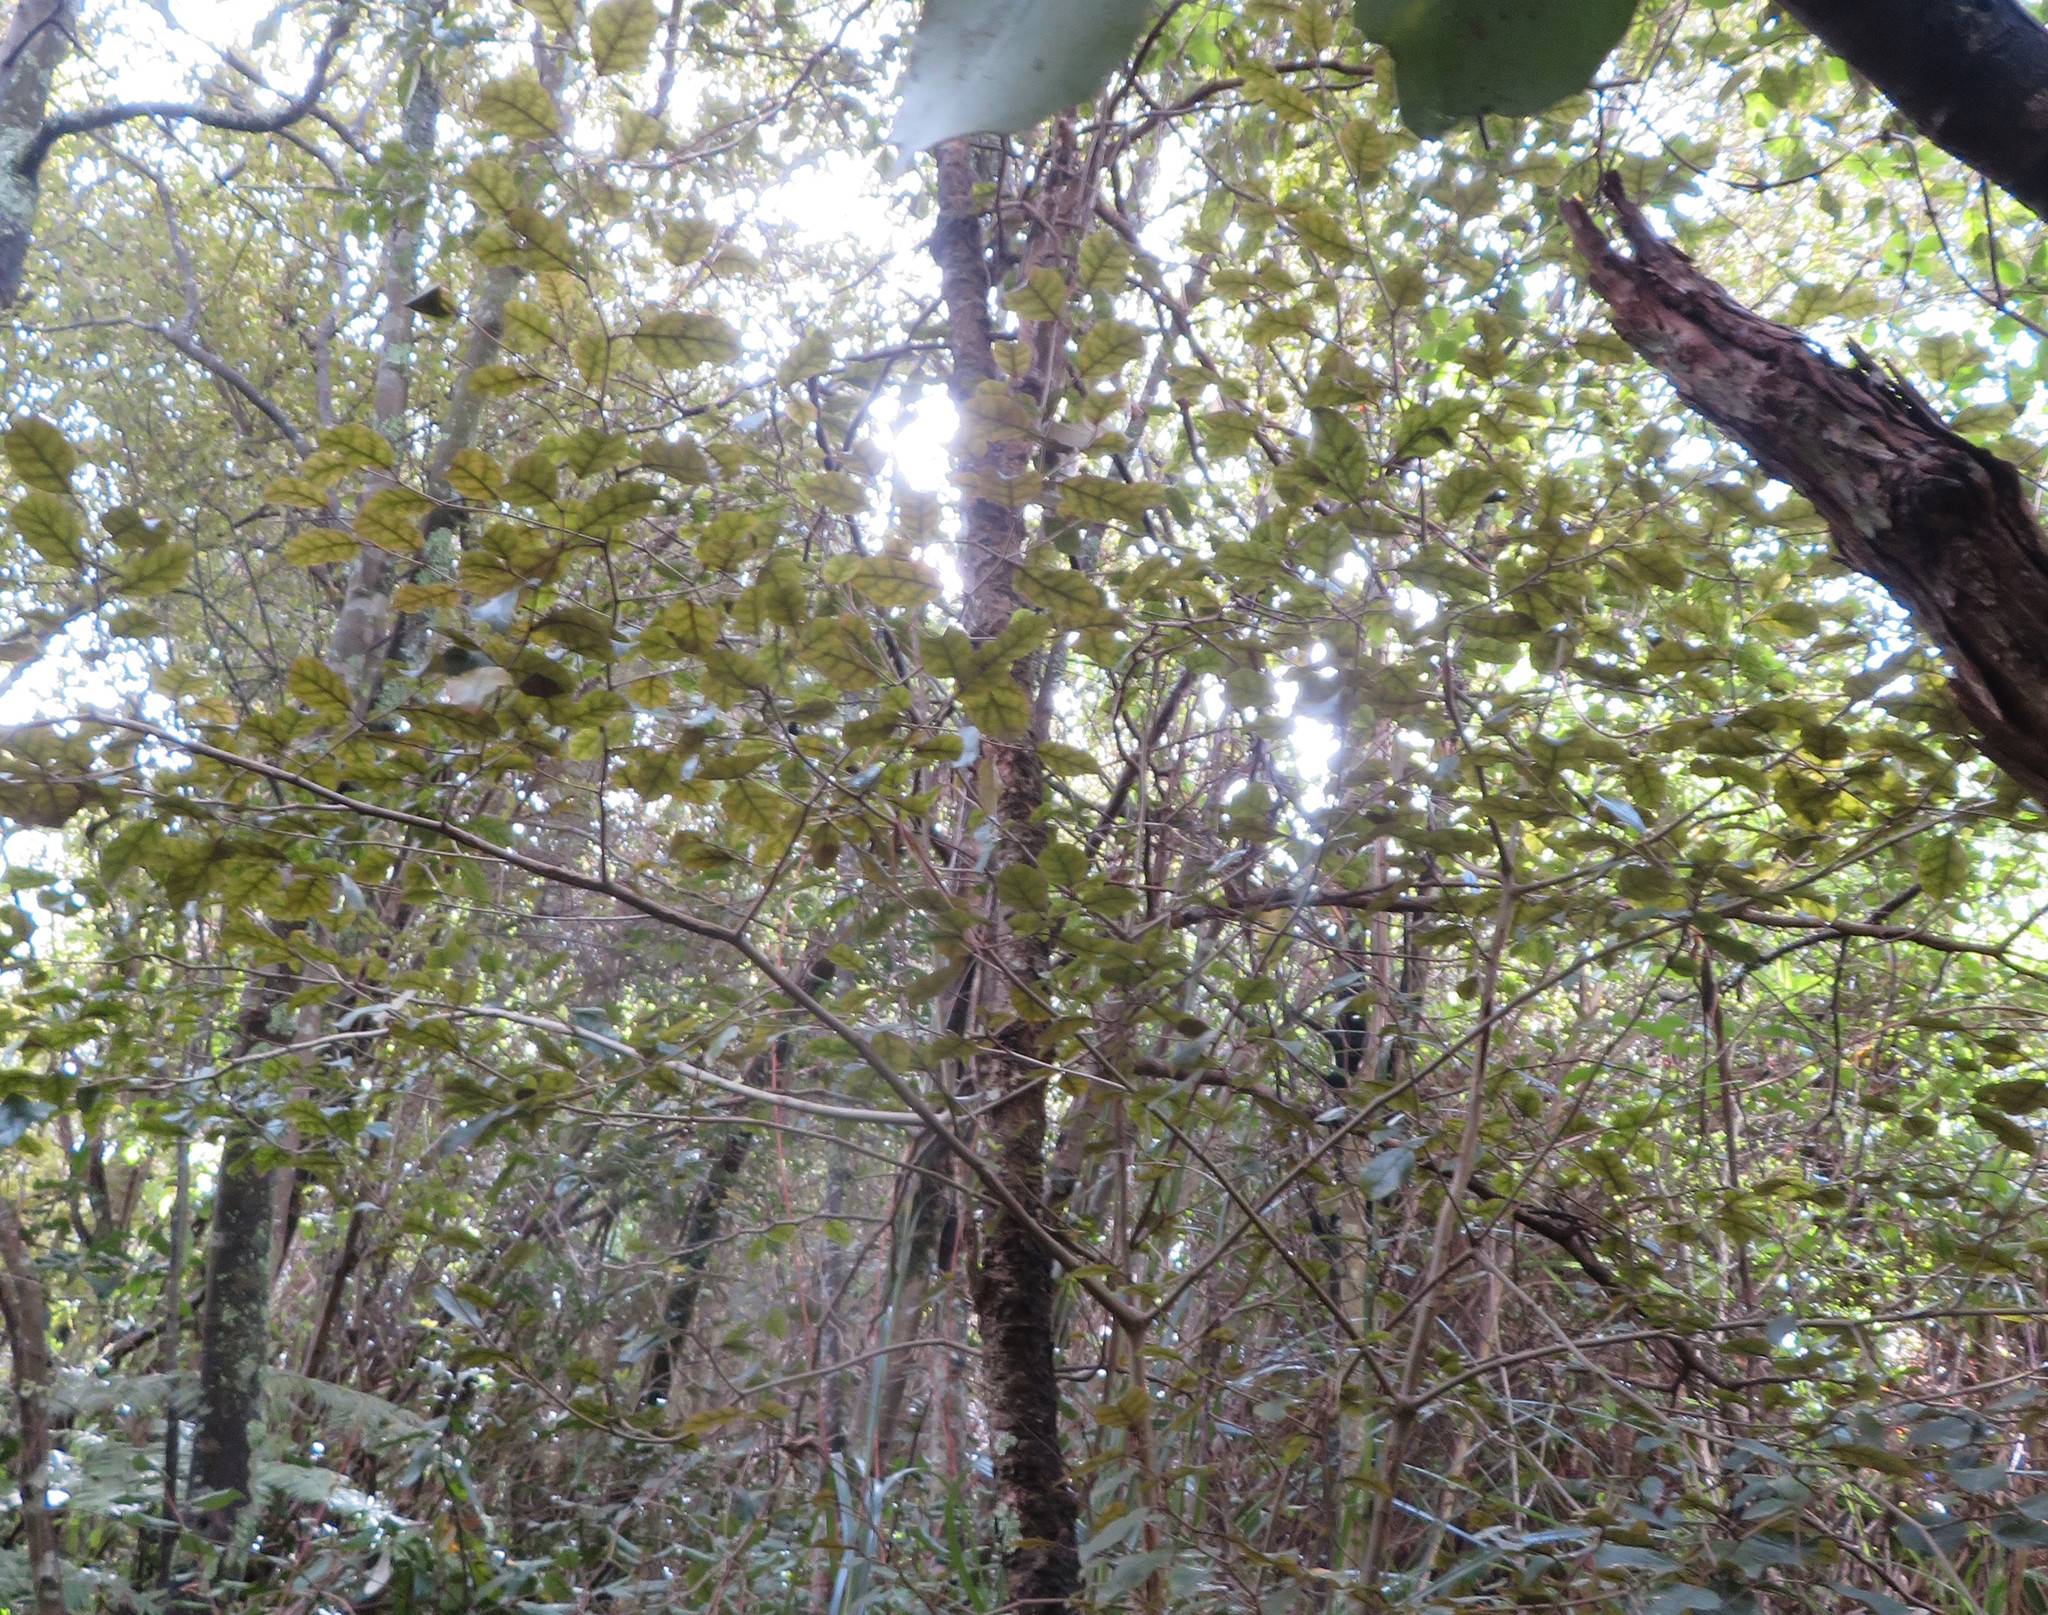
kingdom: Plantae
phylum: Tracheophyta
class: Magnoliopsida
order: Asterales
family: Rousseaceae
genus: Carpodetus
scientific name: Carpodetus serratus
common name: White mapau
